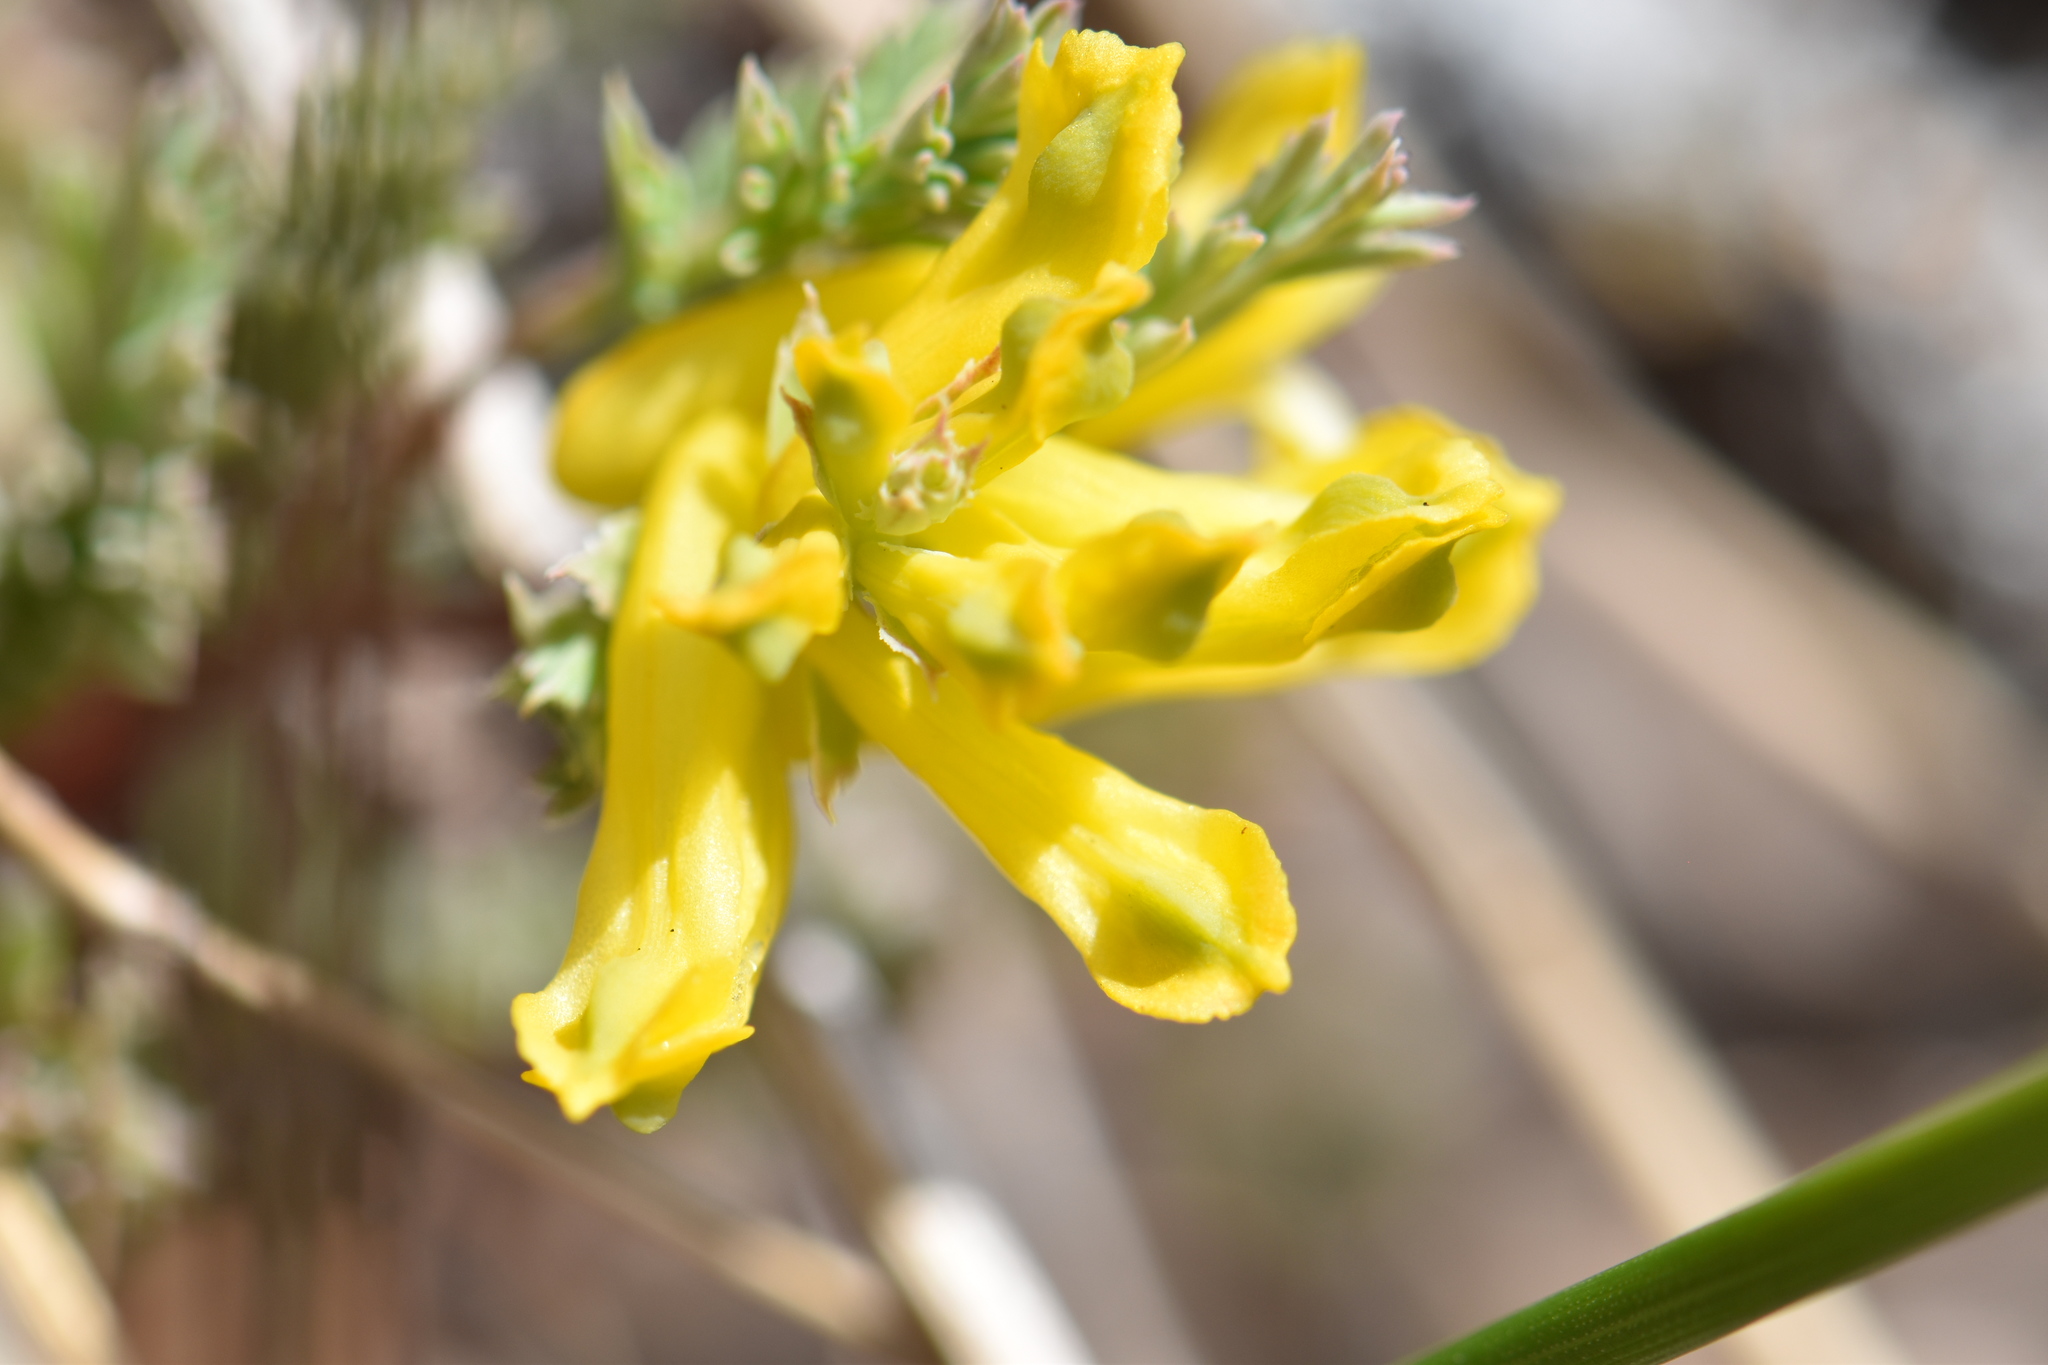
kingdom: Plantae
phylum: Tracheophyta
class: Magnoliopsida
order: Ranunculales
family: Papaveraceae
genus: Corydalis
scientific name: Corydalis aurea
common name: Golden corydalis
